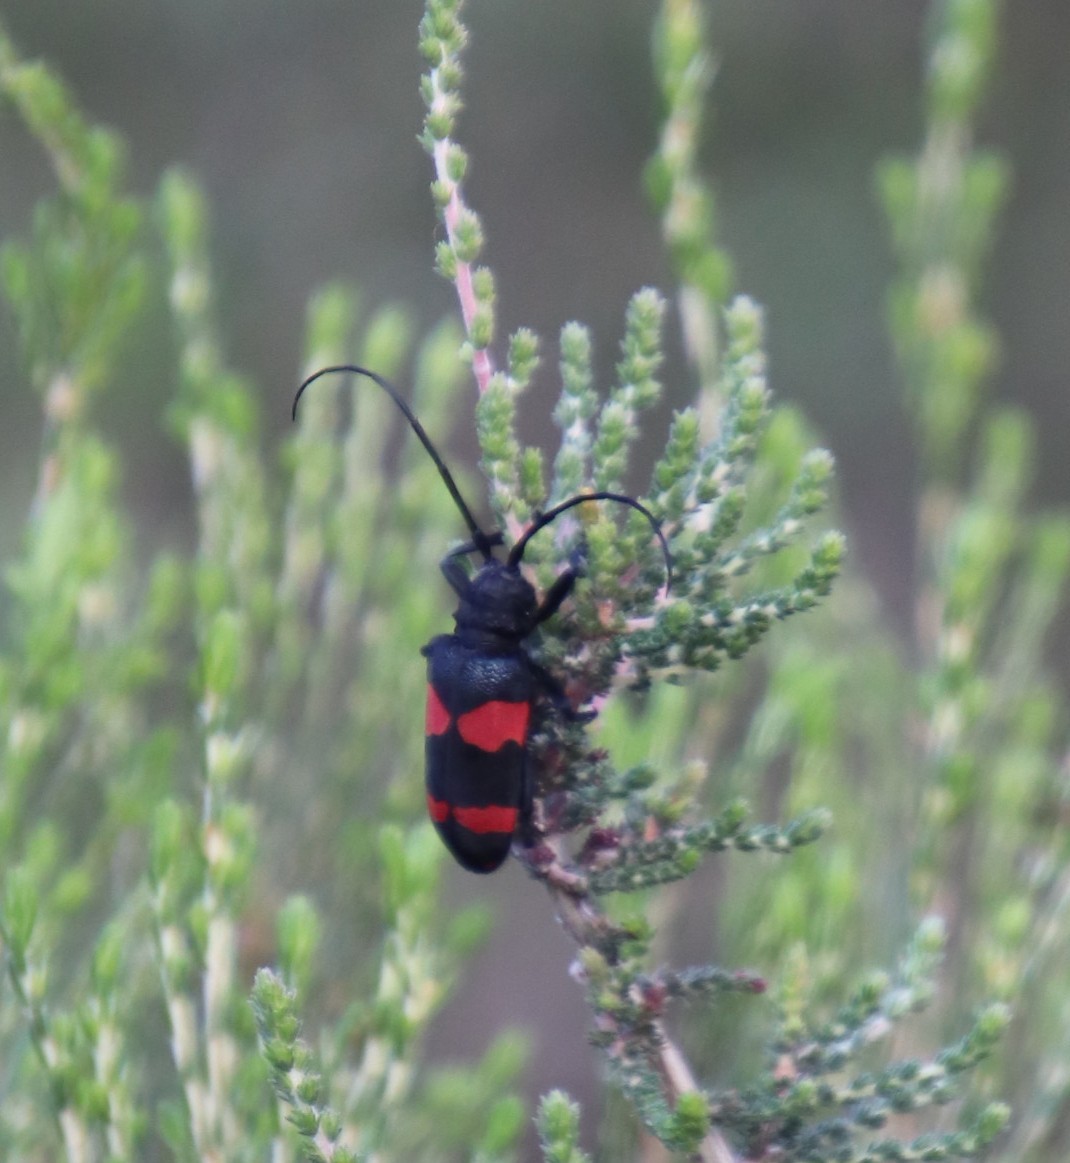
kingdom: Animalia
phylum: Arthropoda
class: Insecta
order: Coleoptera
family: Cerambycidae
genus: Ceroplesis
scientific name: Ceroplesis aethiops
